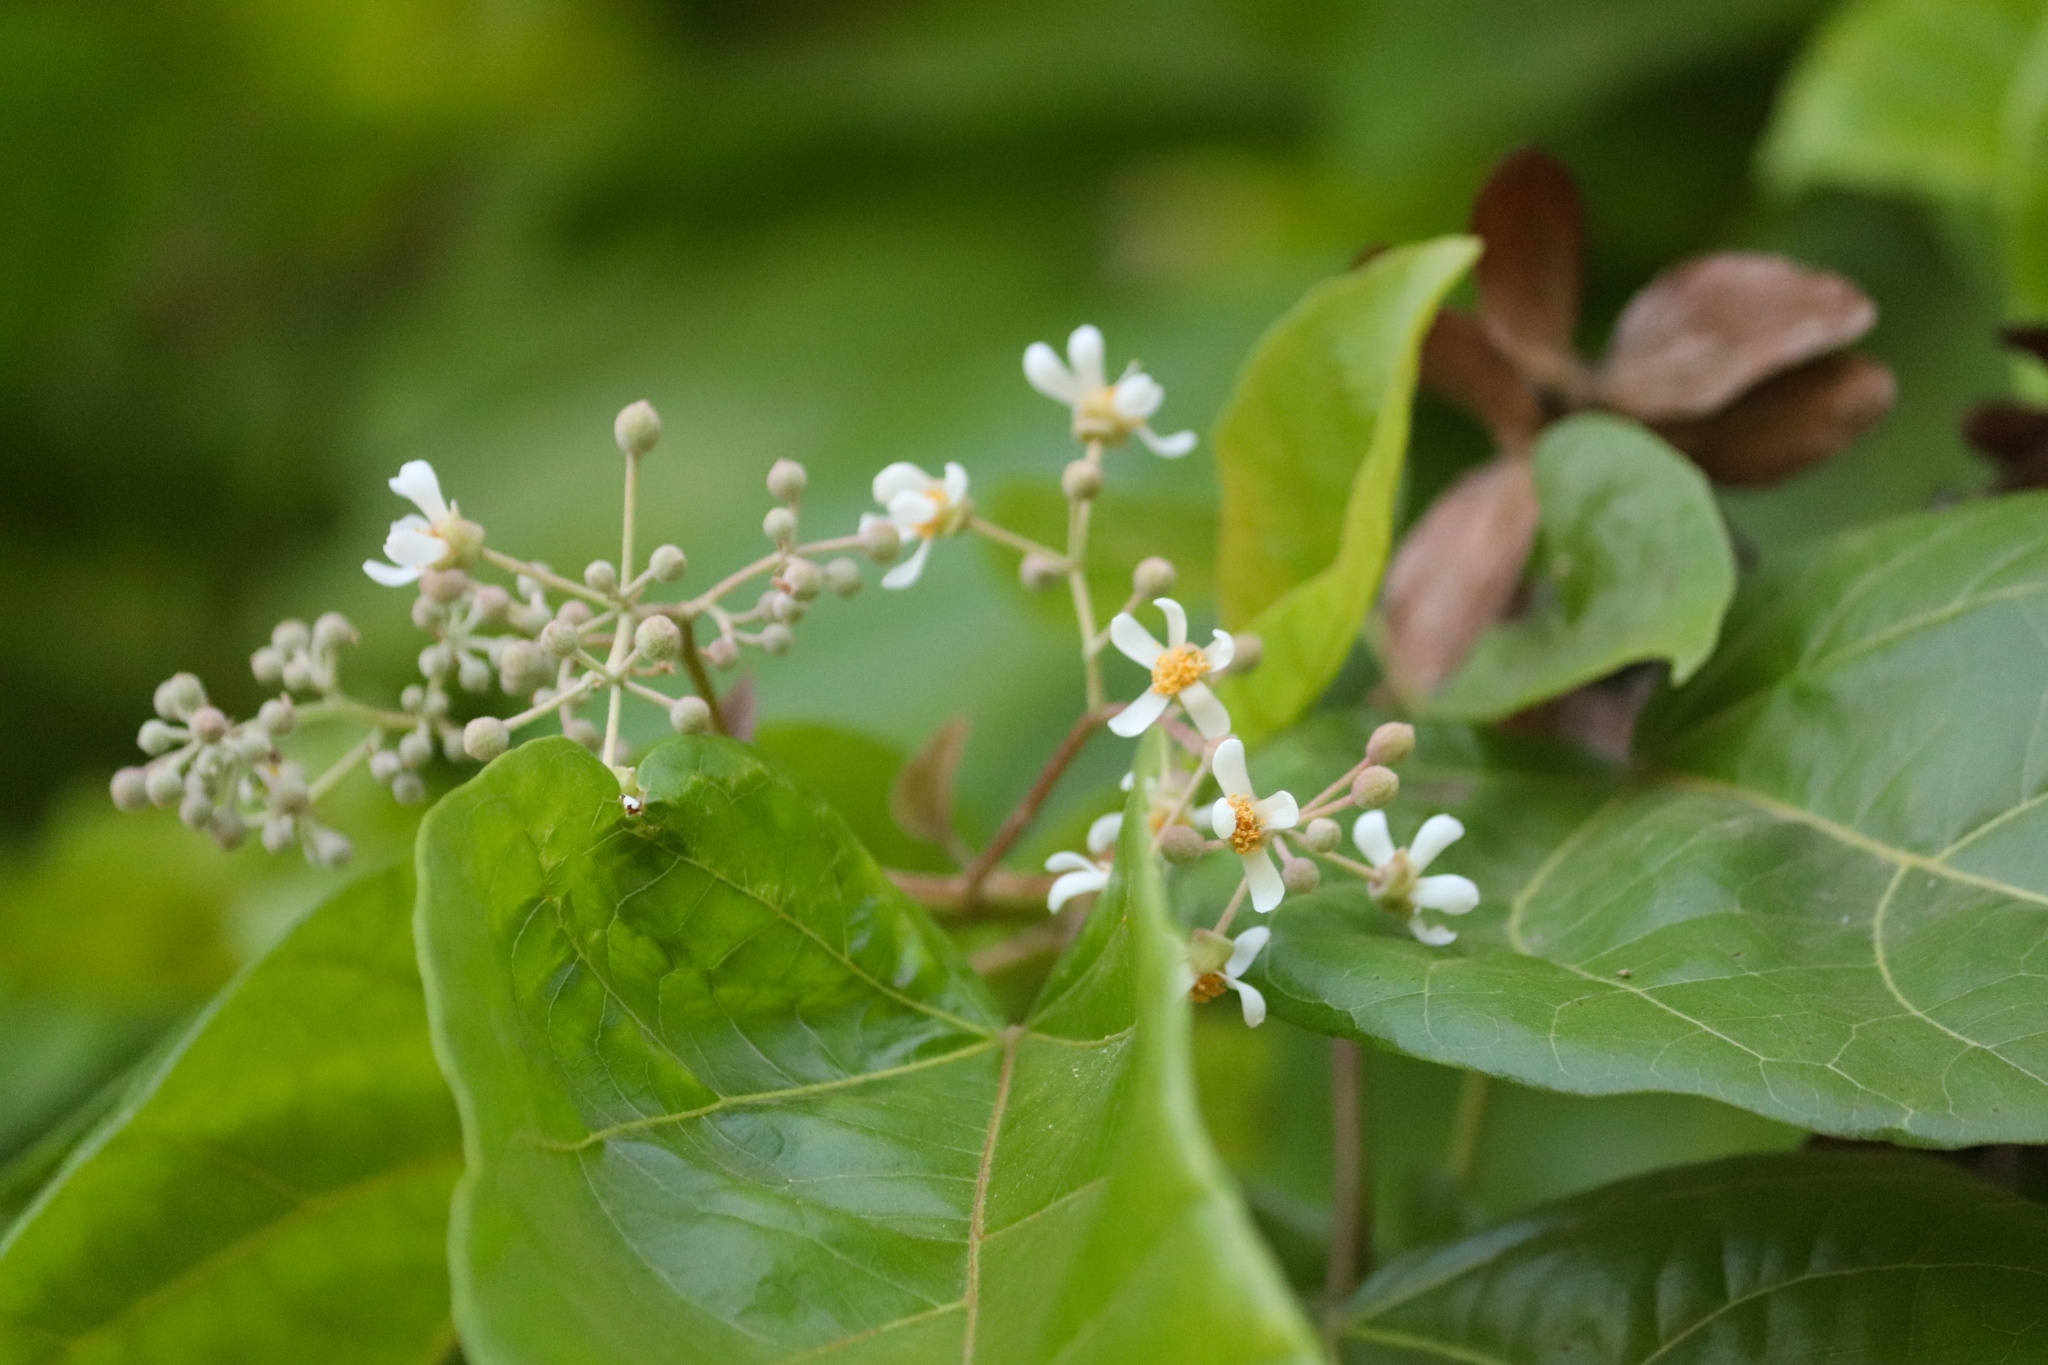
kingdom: Plantae
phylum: Tracheophyta
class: Magnoliopsida
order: Malvales
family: Malvaceae
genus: Berrya
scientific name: Berrya cordifolia
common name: Trincomalee
